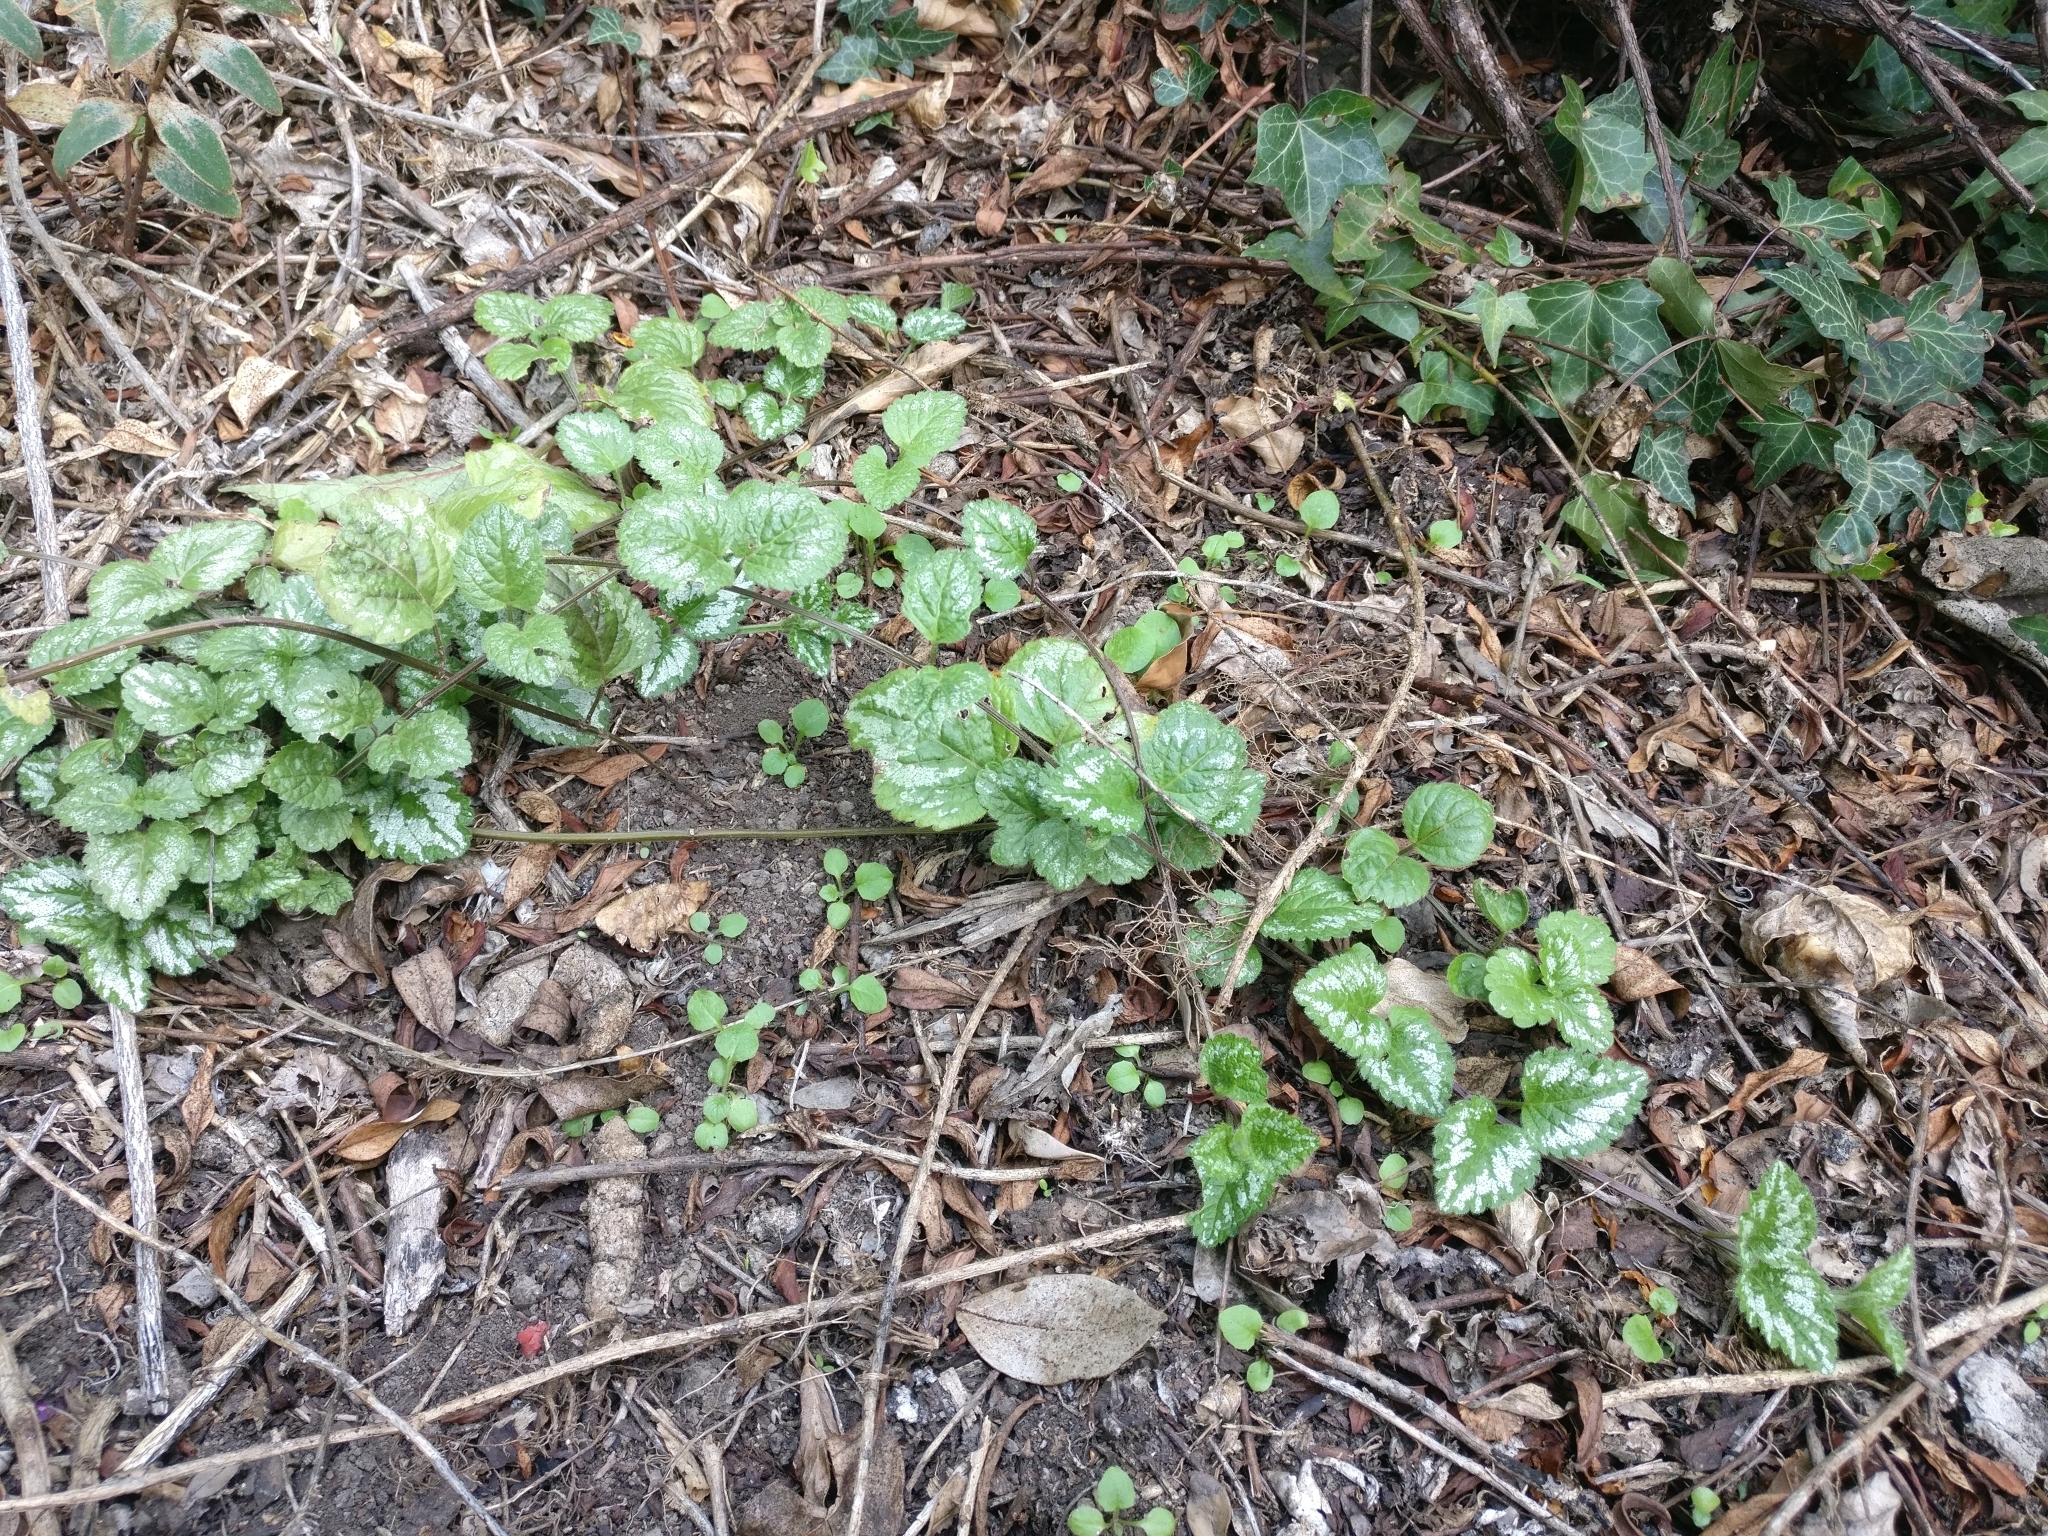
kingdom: Plantae
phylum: Tracheophyta
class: Magnoliopsida
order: Lamiales
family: Lamiaceae
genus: Lamium
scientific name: Lamium galeobdolon
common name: Yellow archangel
